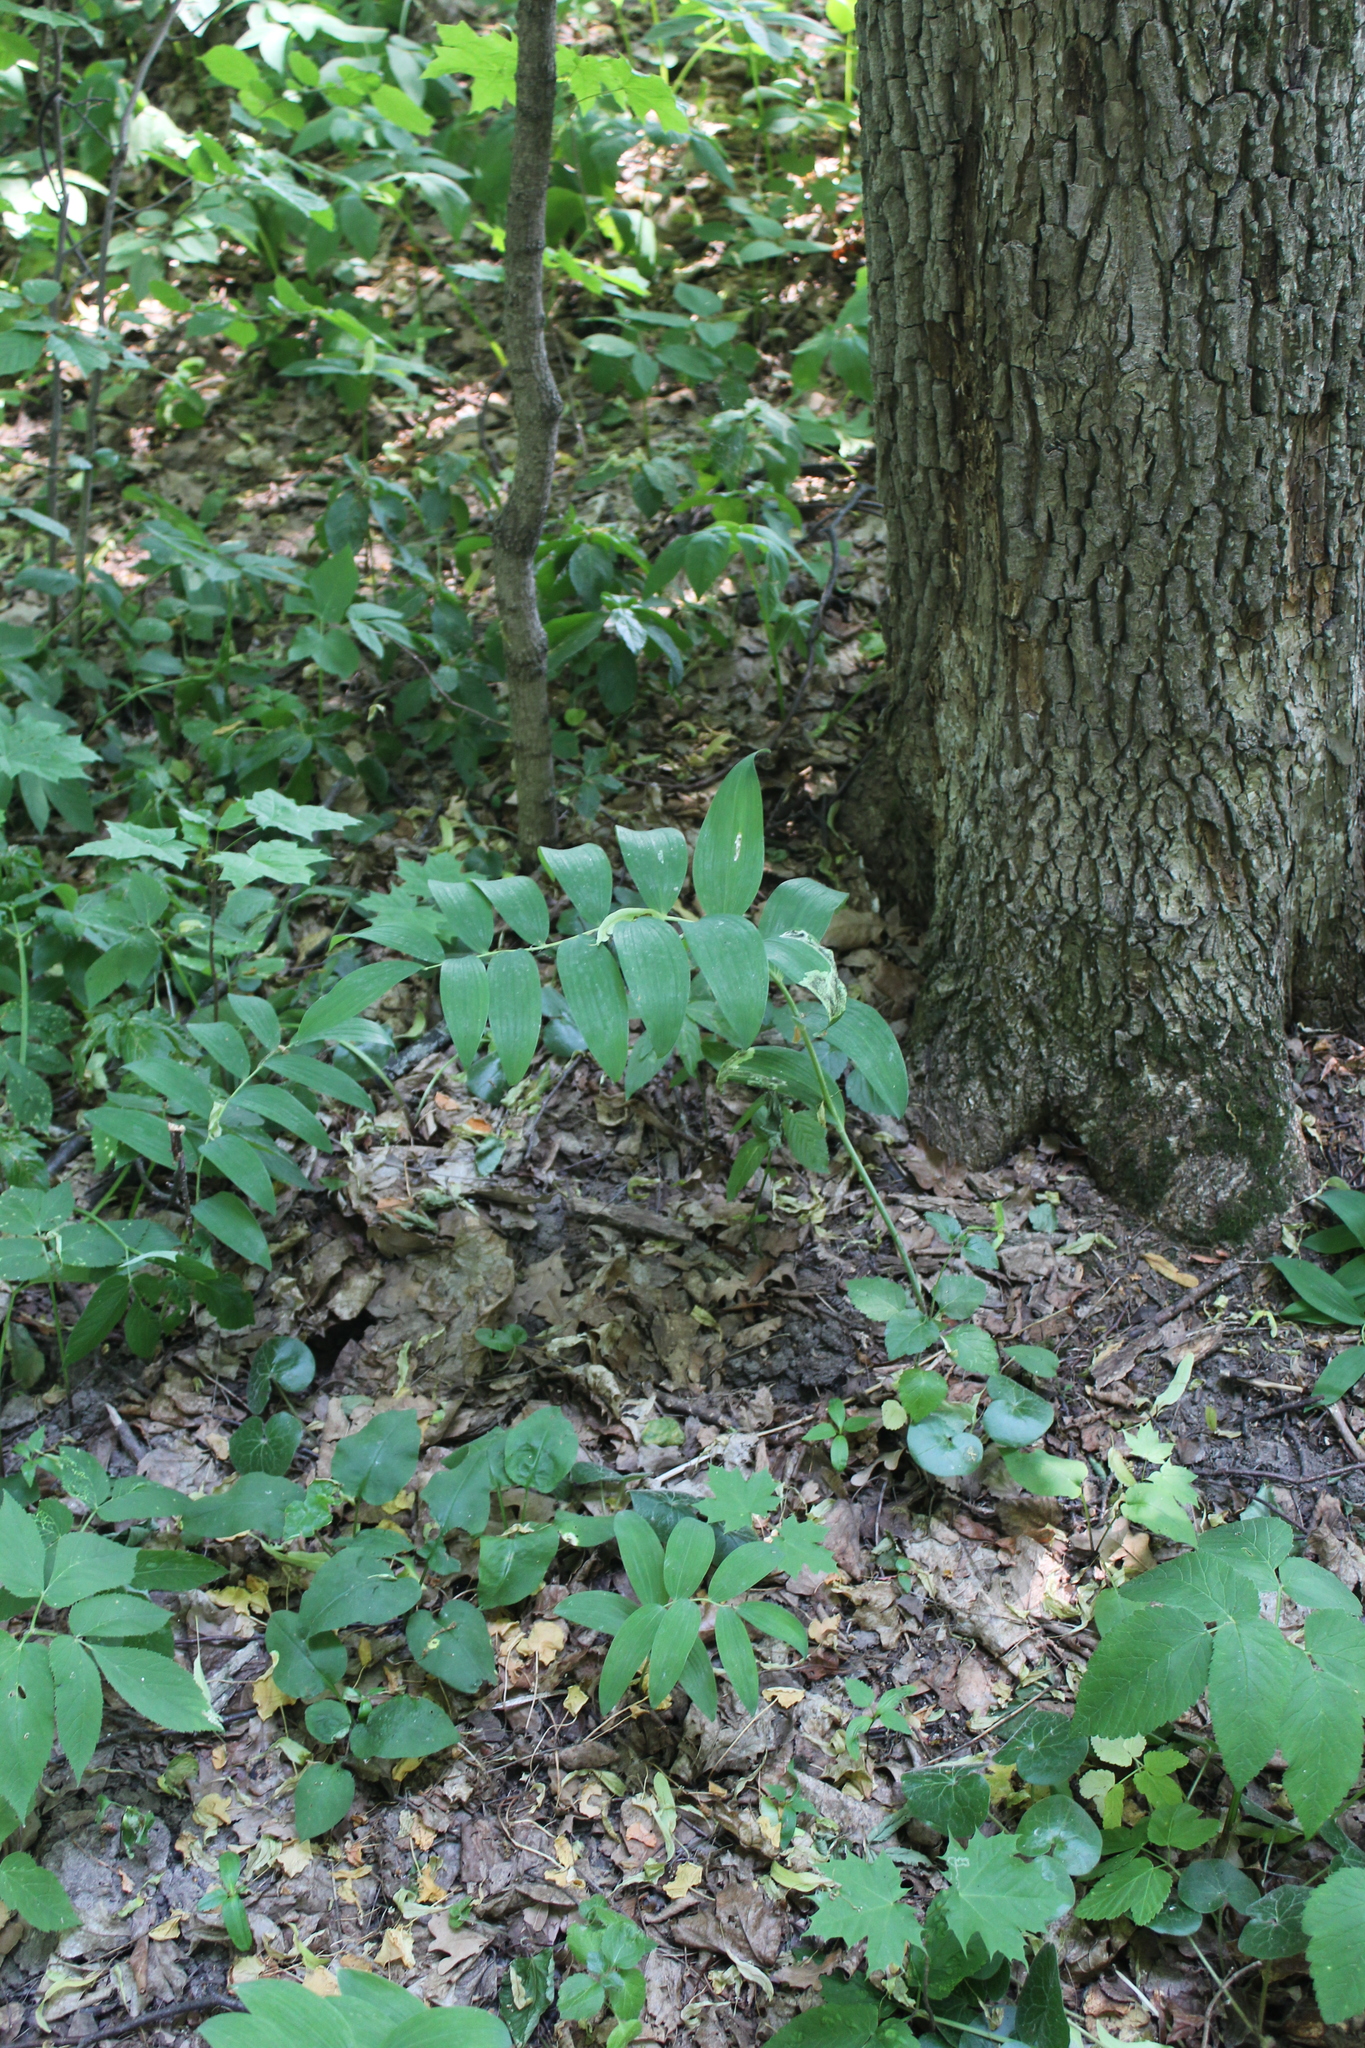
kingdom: Plantae
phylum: Tracheophyta
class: Liliopsida
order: Asparagales
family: Asparagaceae
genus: Polygonatum
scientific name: Polygonatum multiflorum
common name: Solomon's-seal
